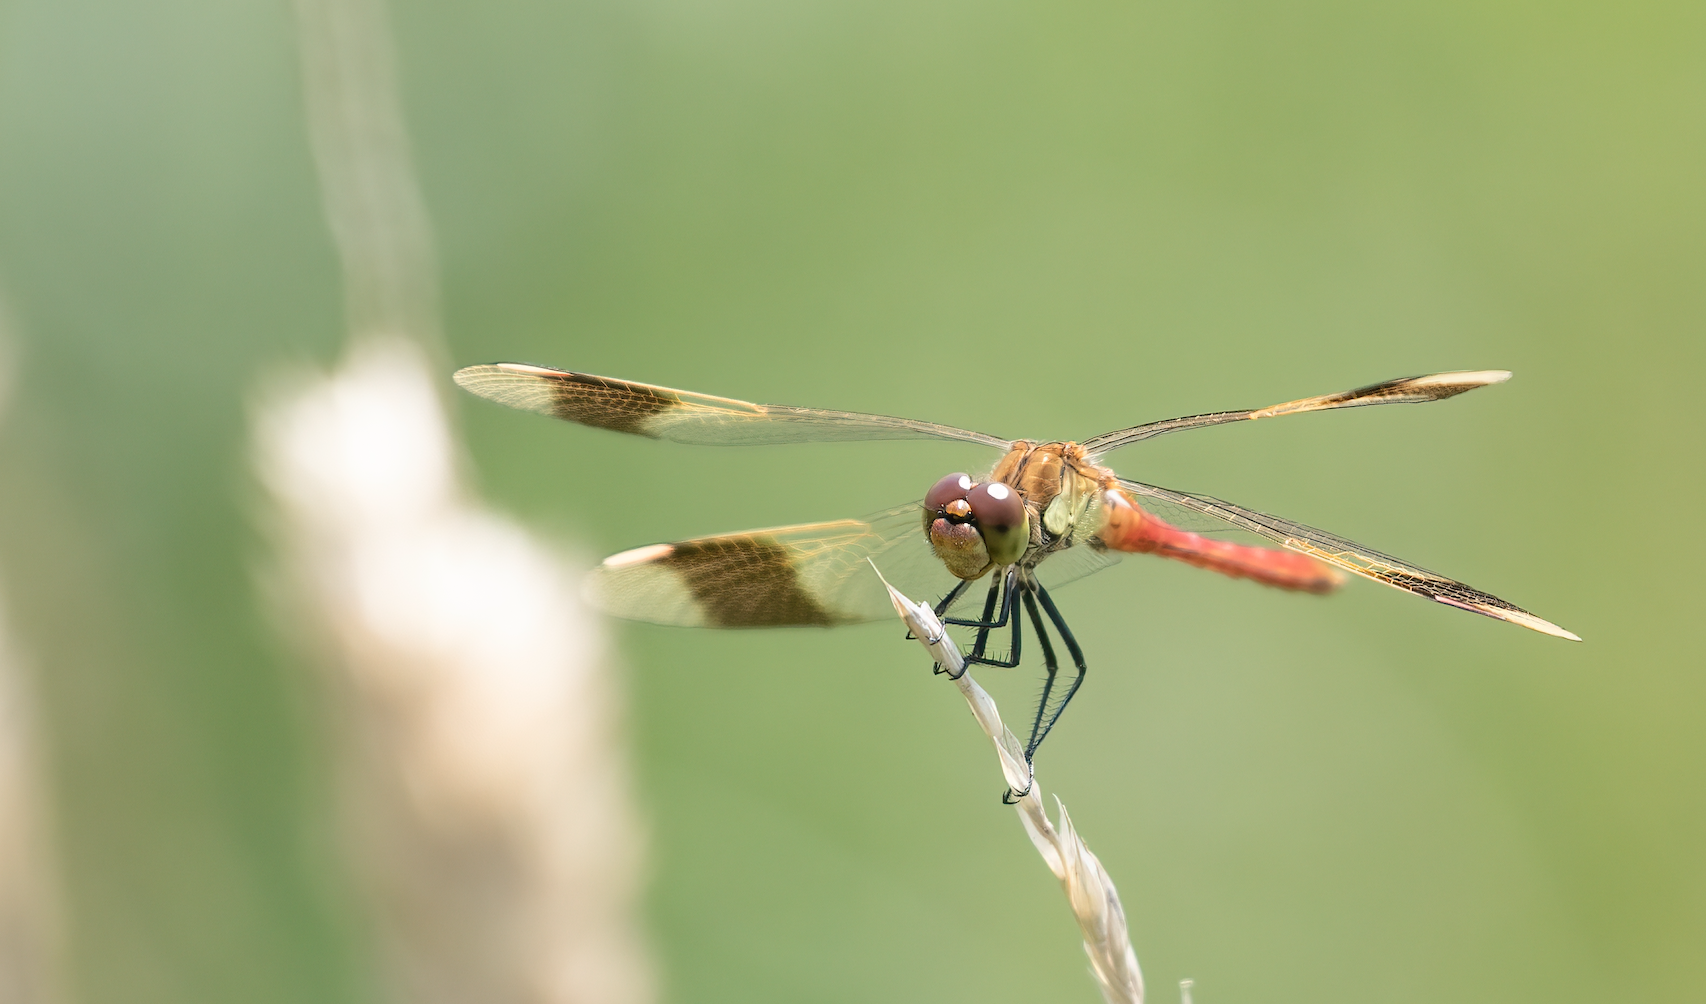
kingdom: Animalia
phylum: Arthropoda
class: Insecta
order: Odonata
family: Libellulidae
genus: Sympetrum
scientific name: Sympetrum pedemontanum
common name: Banded darter
